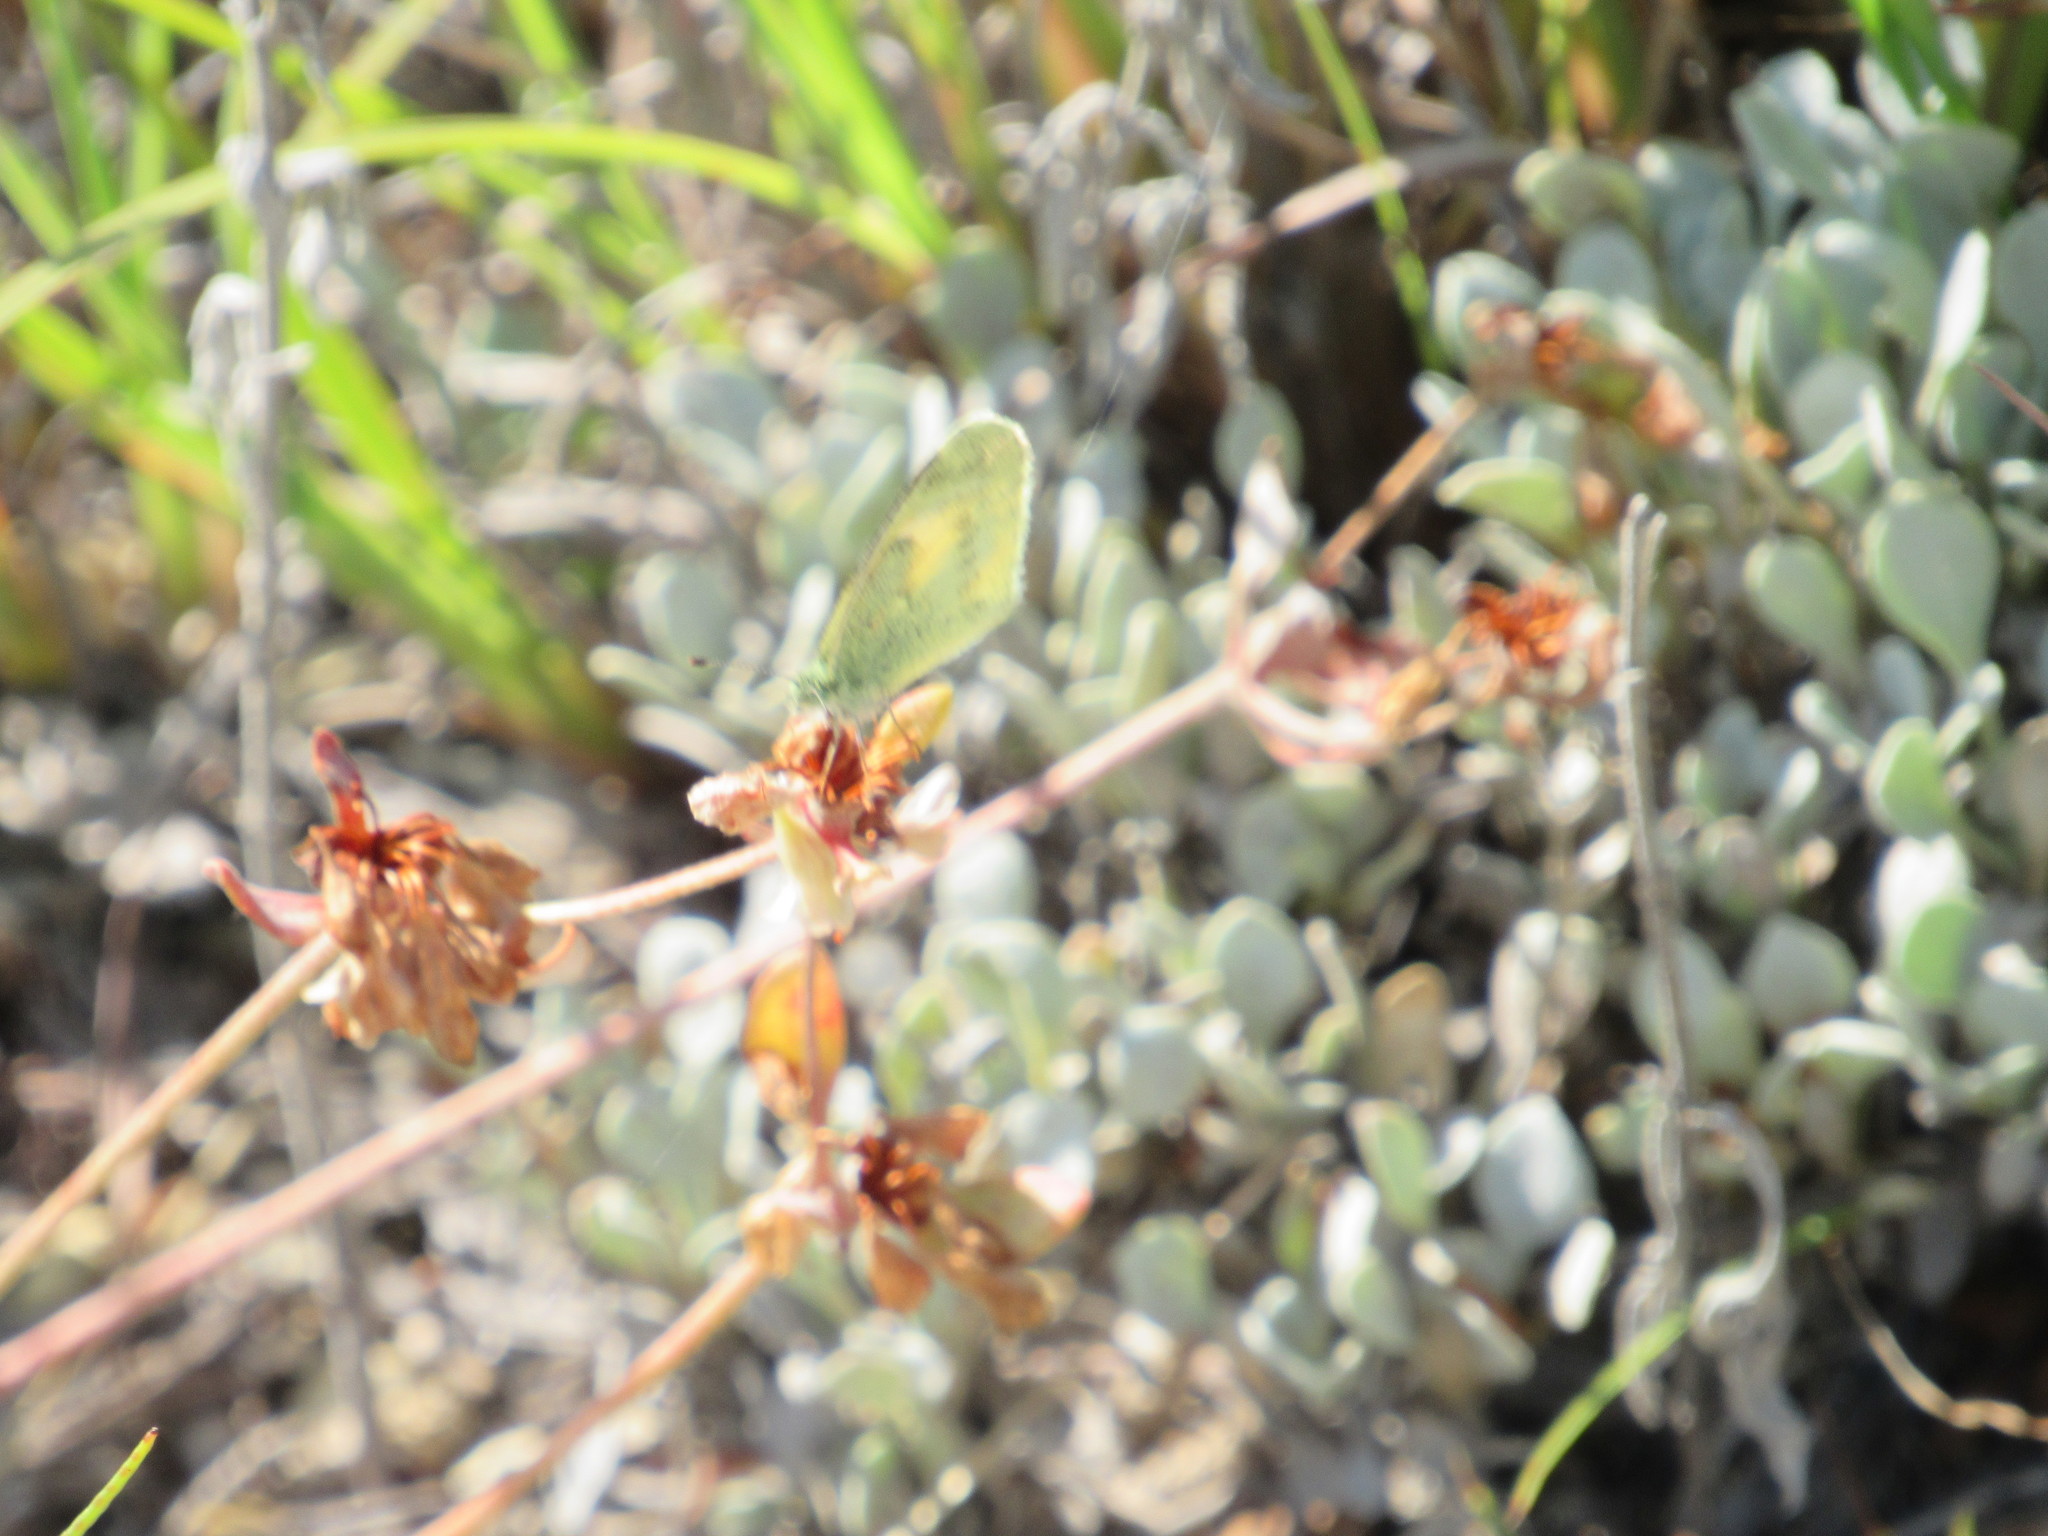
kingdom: Animalia
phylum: Arthropoda
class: Insecta
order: Lepidoptera
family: Pieridae
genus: Nathalis
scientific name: Nathalis iole
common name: Dainty sulphur
